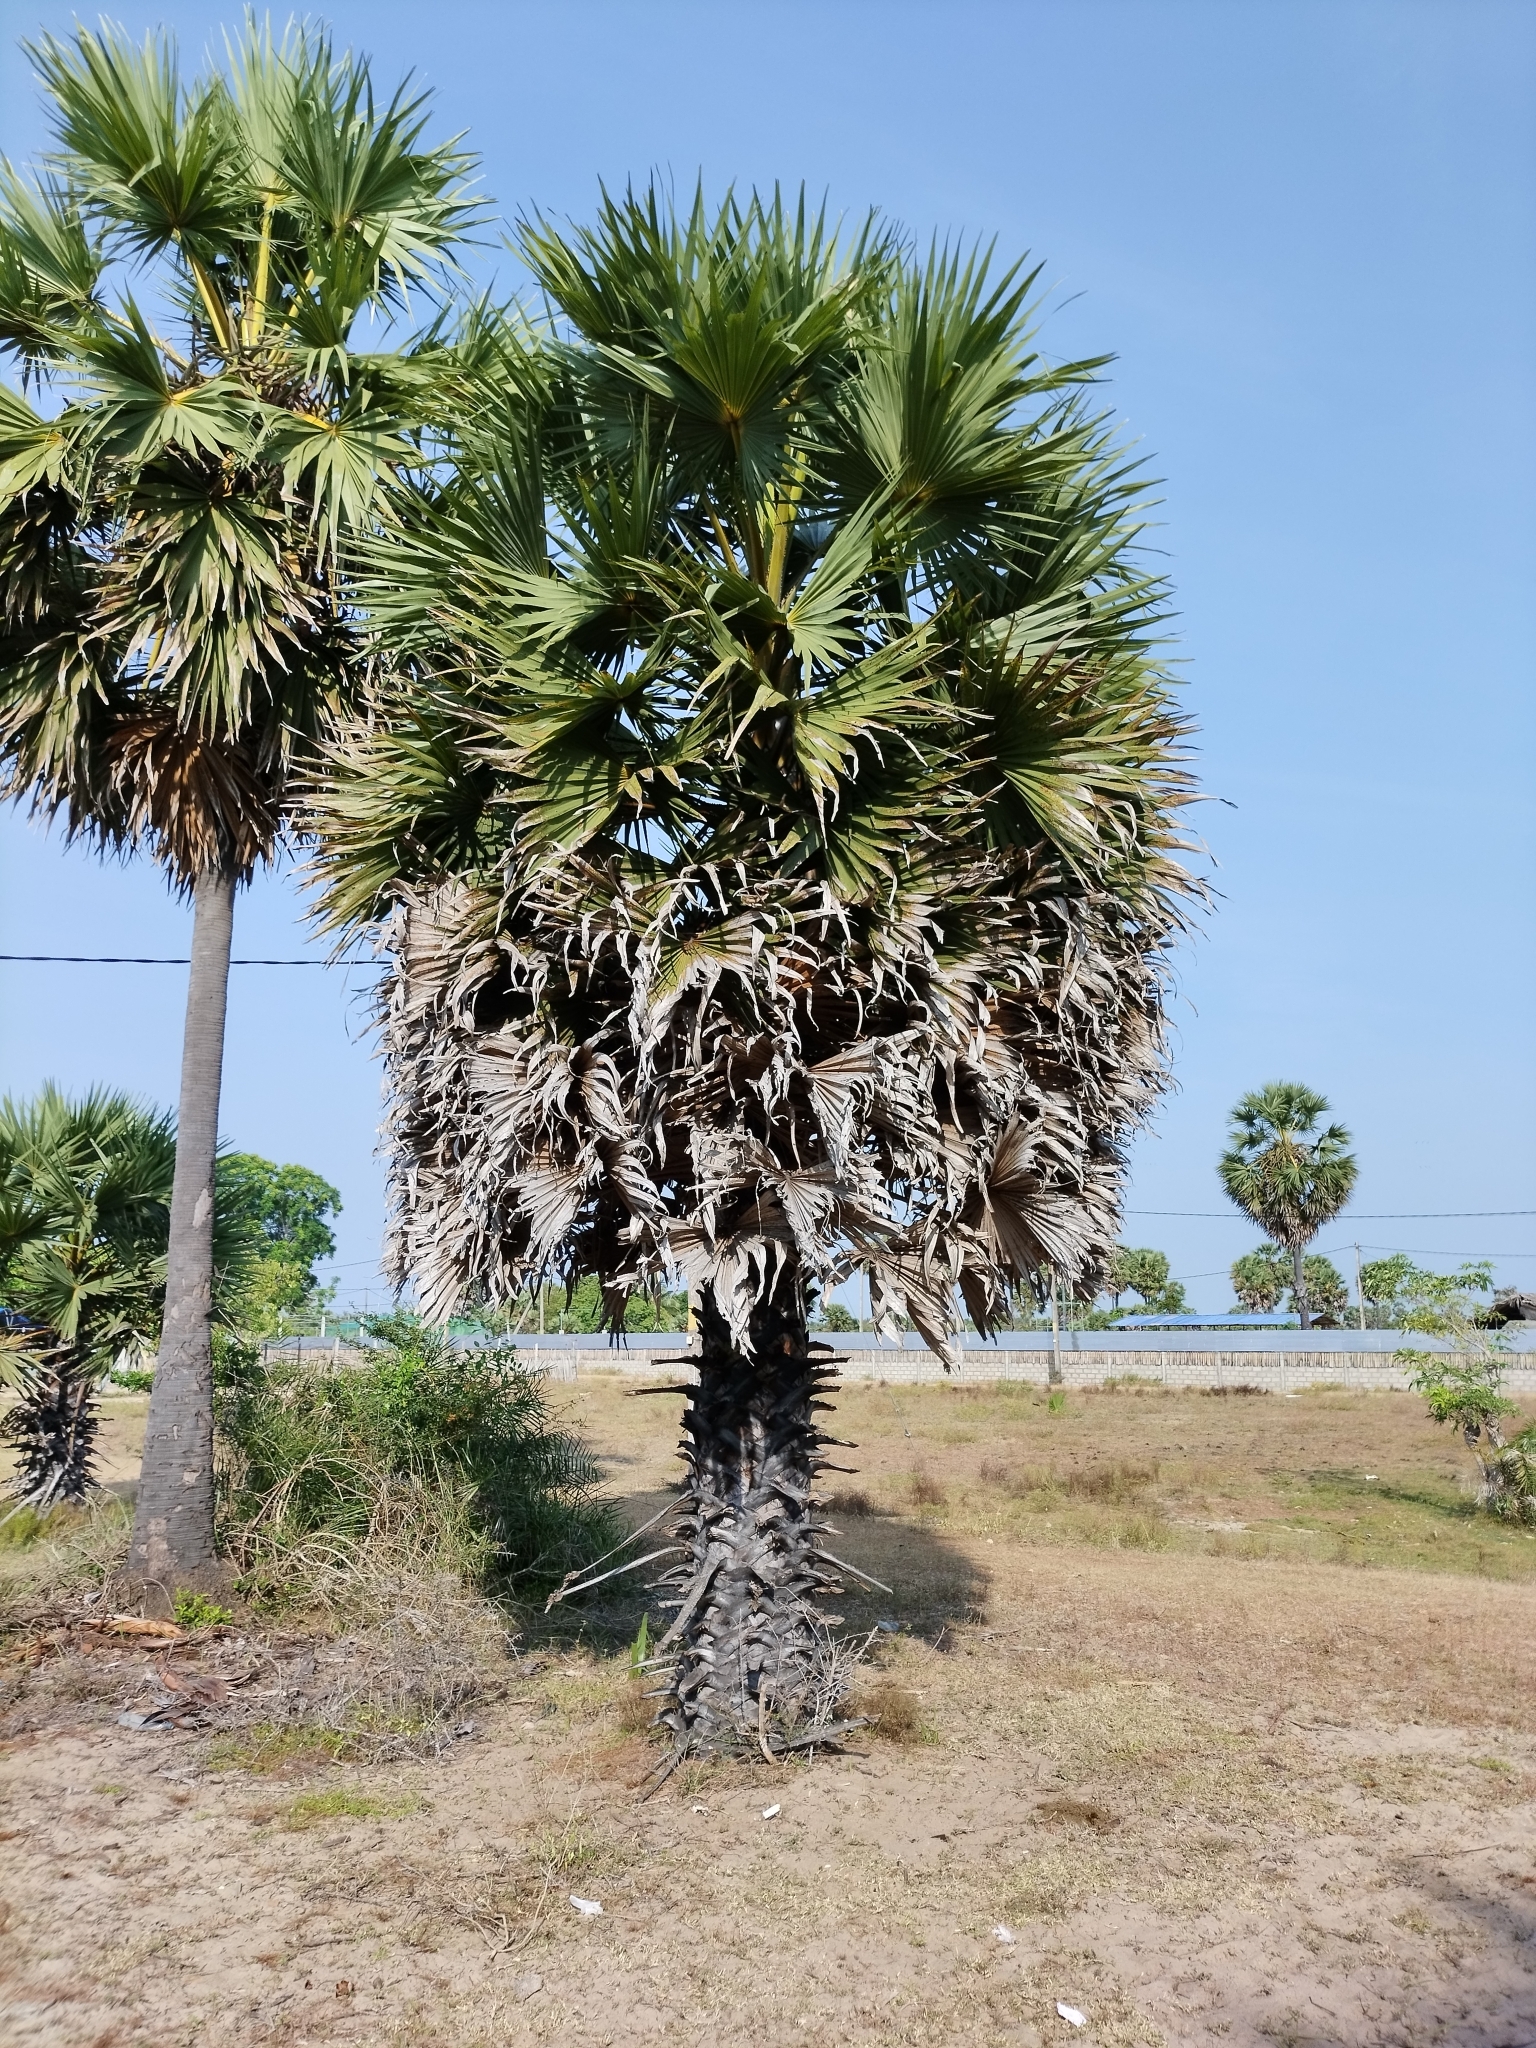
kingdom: Plantae
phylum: Tracheophyta
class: Liliopsida
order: Arecales
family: Arecaceae
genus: Borassus
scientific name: Borassus flabellifer
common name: Palmyra palm
